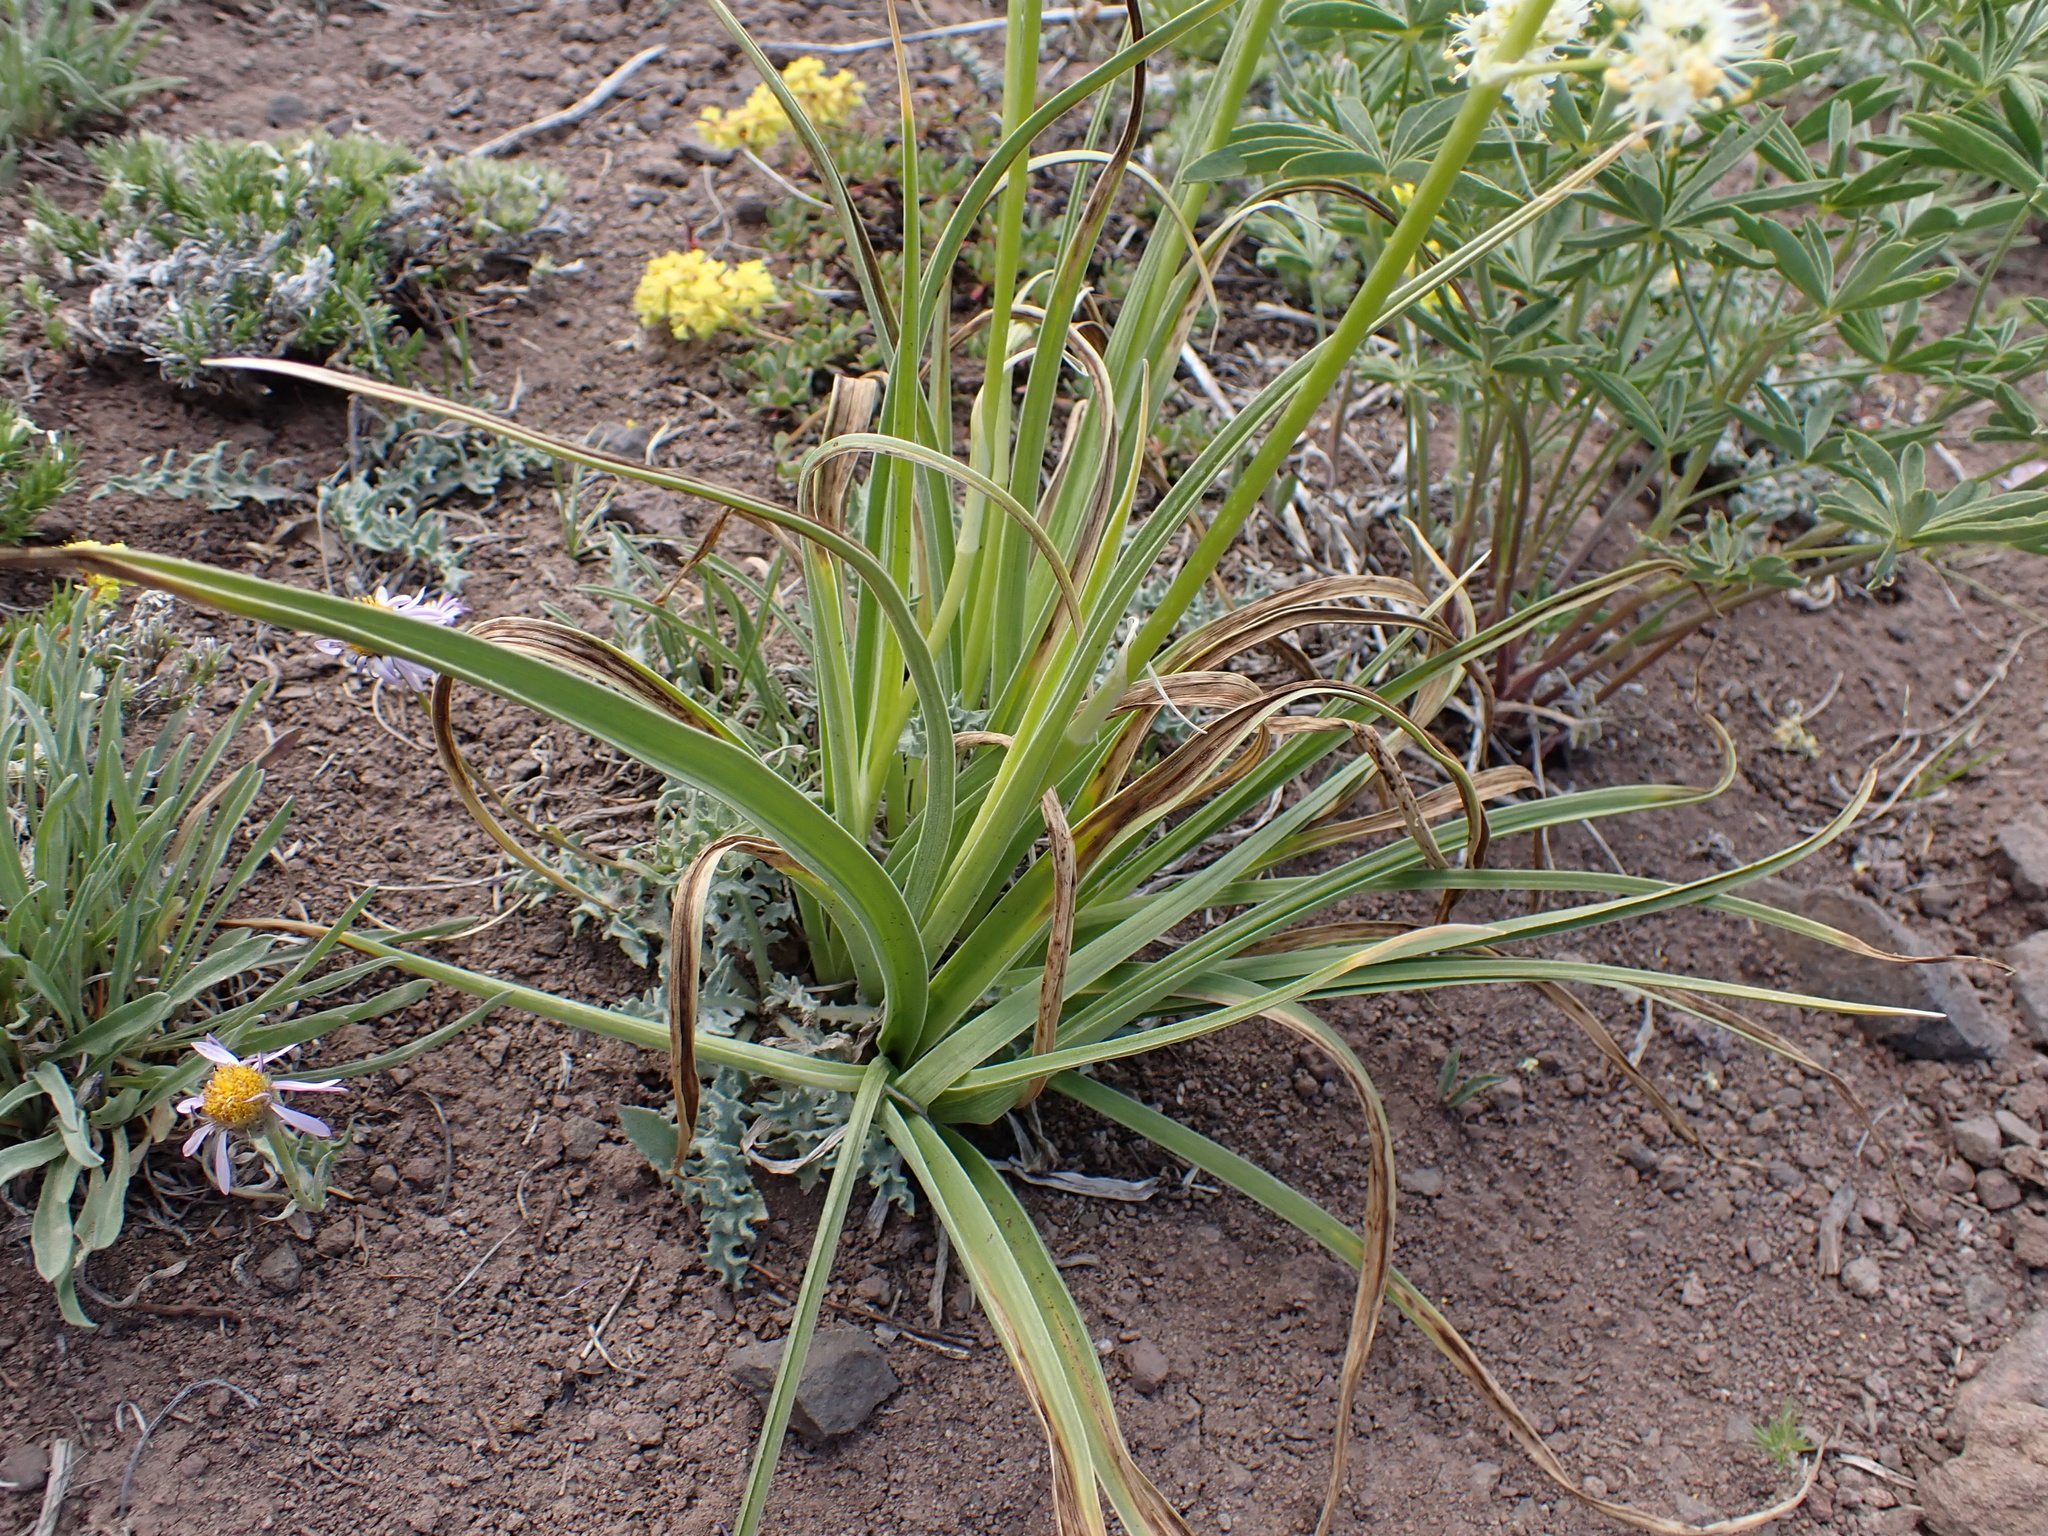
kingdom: Plantae
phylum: Tracheophyta
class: Liliopsida
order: Liliales
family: Melanthiaceae
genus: Toxicoscordion
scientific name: Toxicoscordion paniculatum
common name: Foothill death camas
